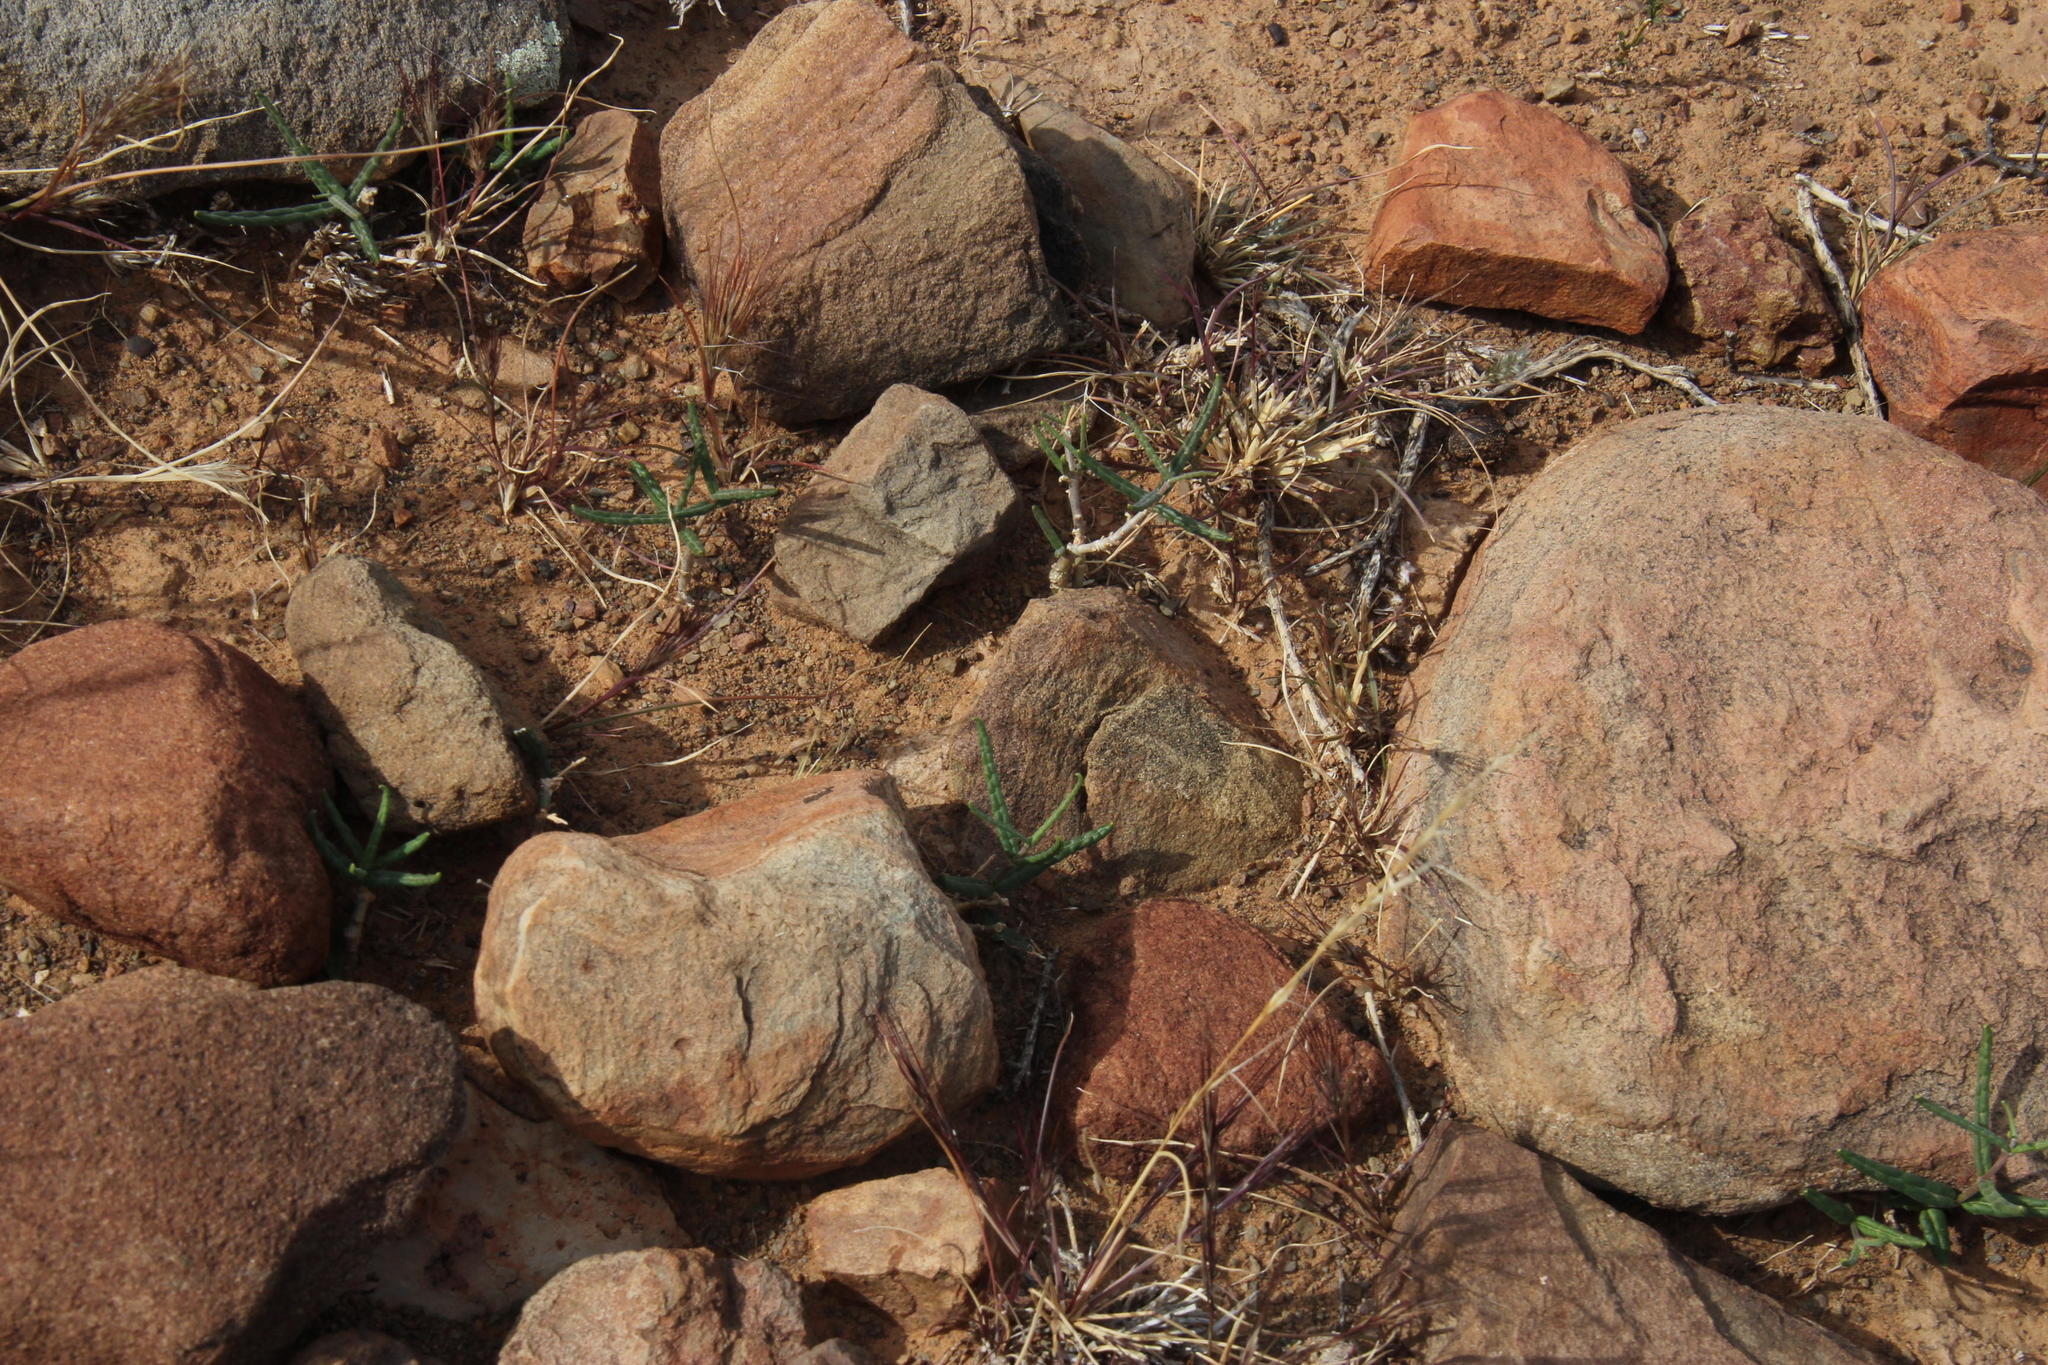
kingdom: Plantae
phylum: Tracheophyta
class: Magnoliopsida
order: Gentianales
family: Apocynaceae
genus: Fockea
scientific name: Fockea comaru
